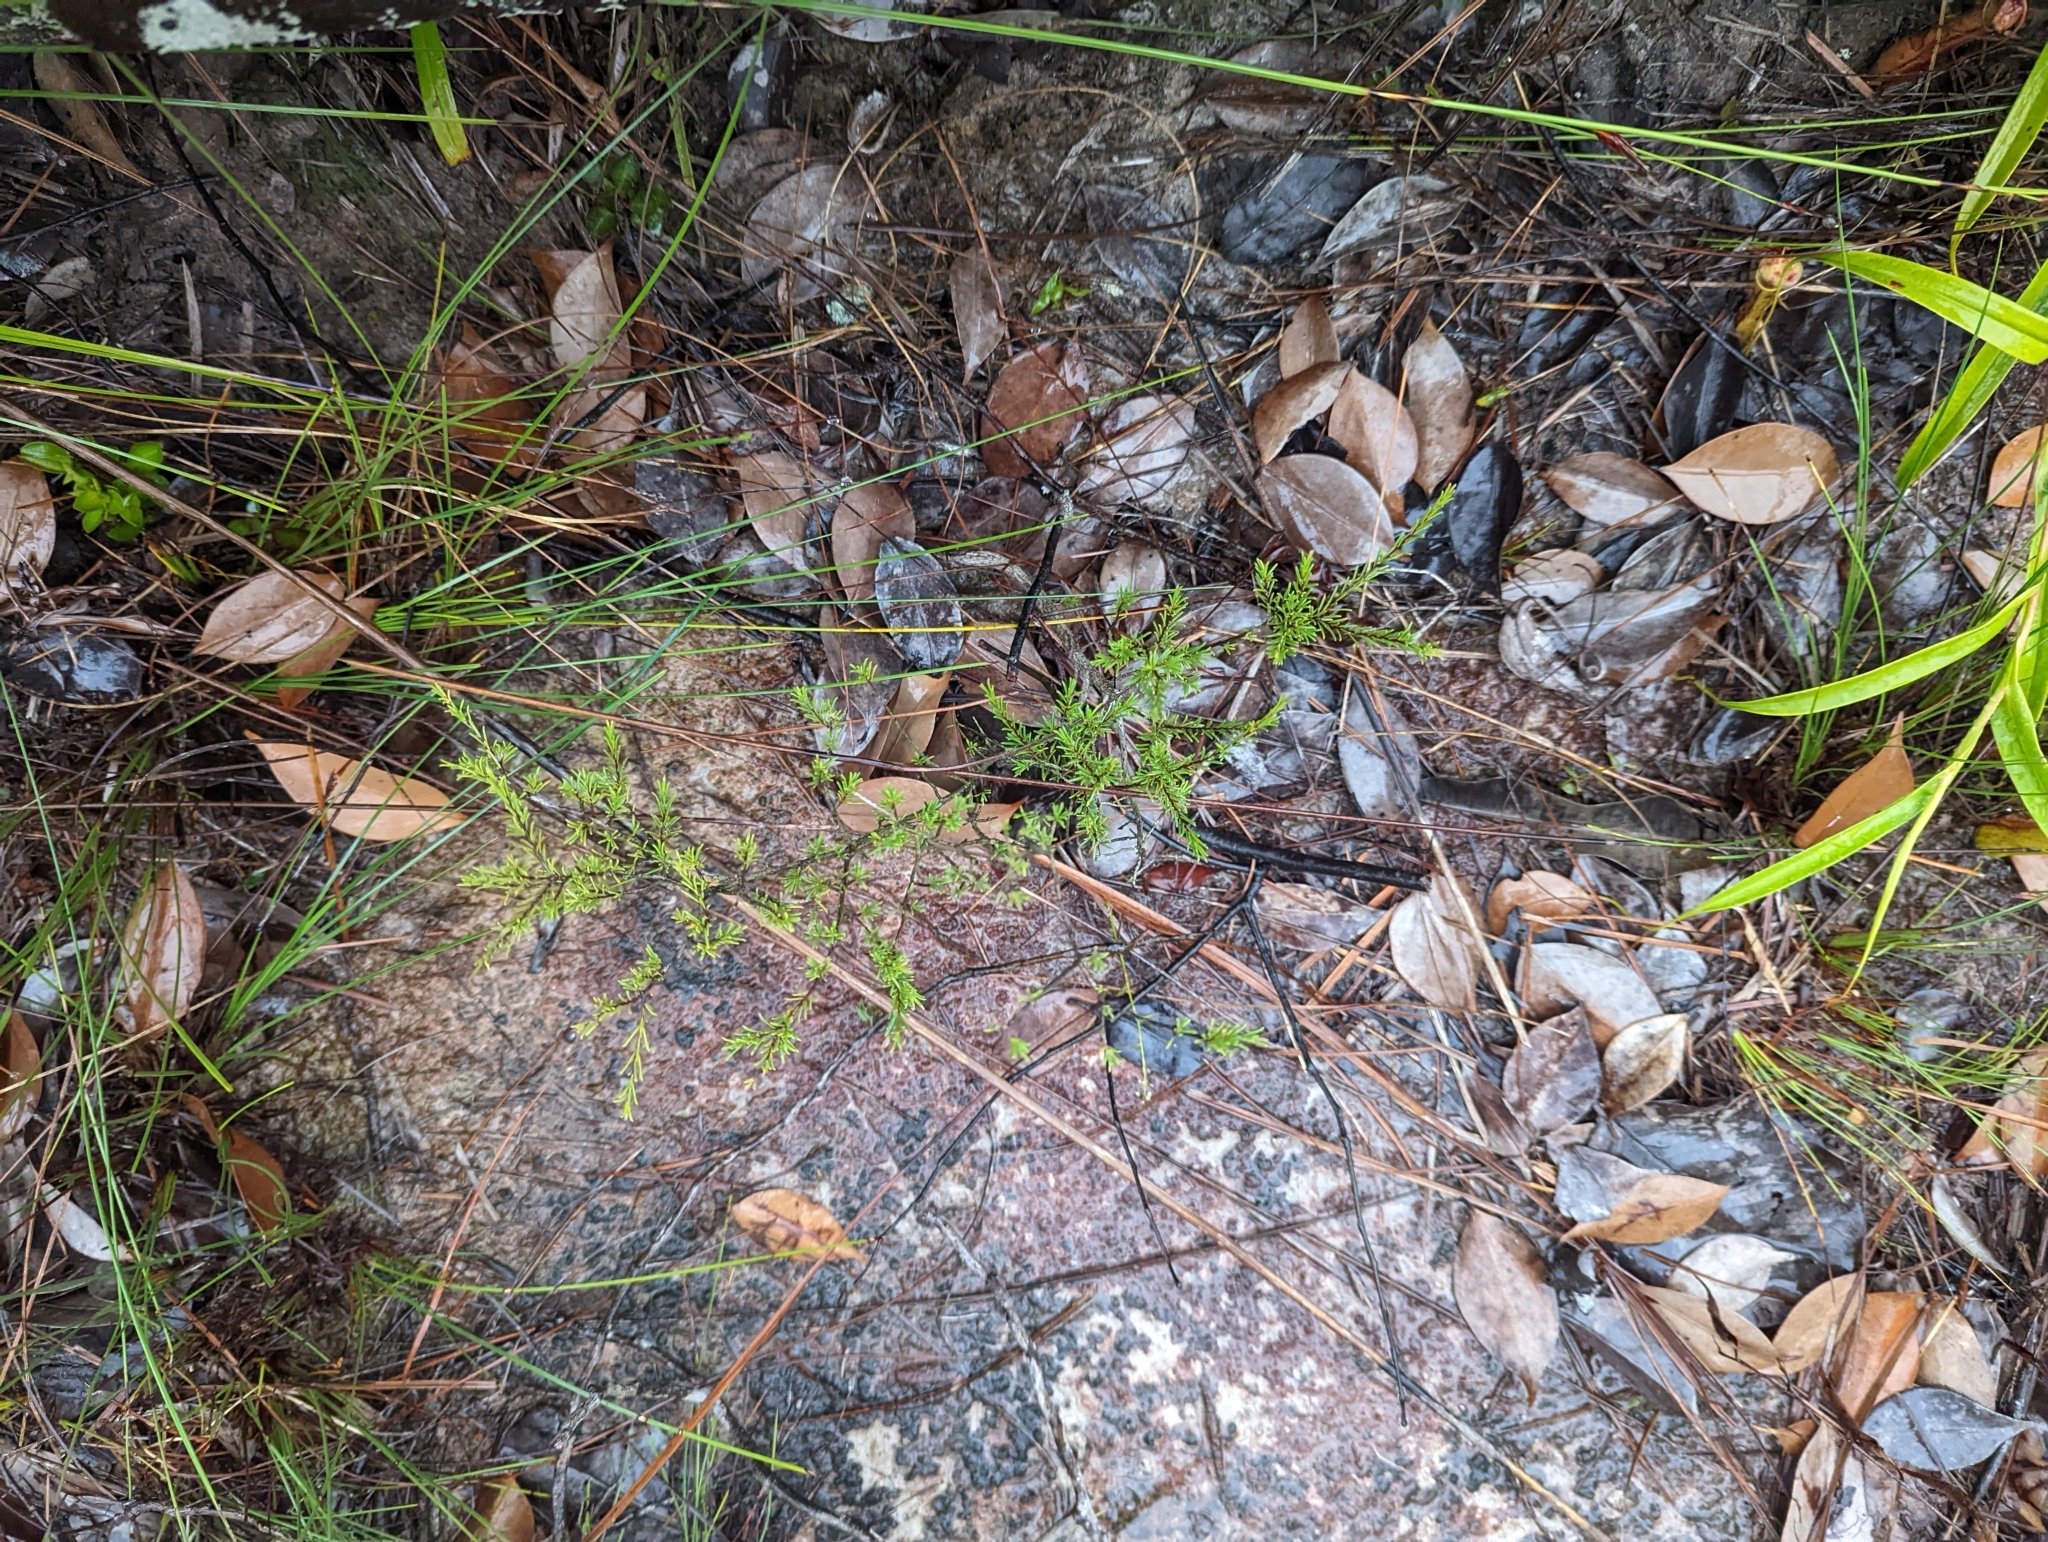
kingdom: Plantae
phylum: Tracheophyta
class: Magnoliopsida
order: Myrtales
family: Myrtaceae
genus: Baeckea
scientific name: Baeckea frutescens
